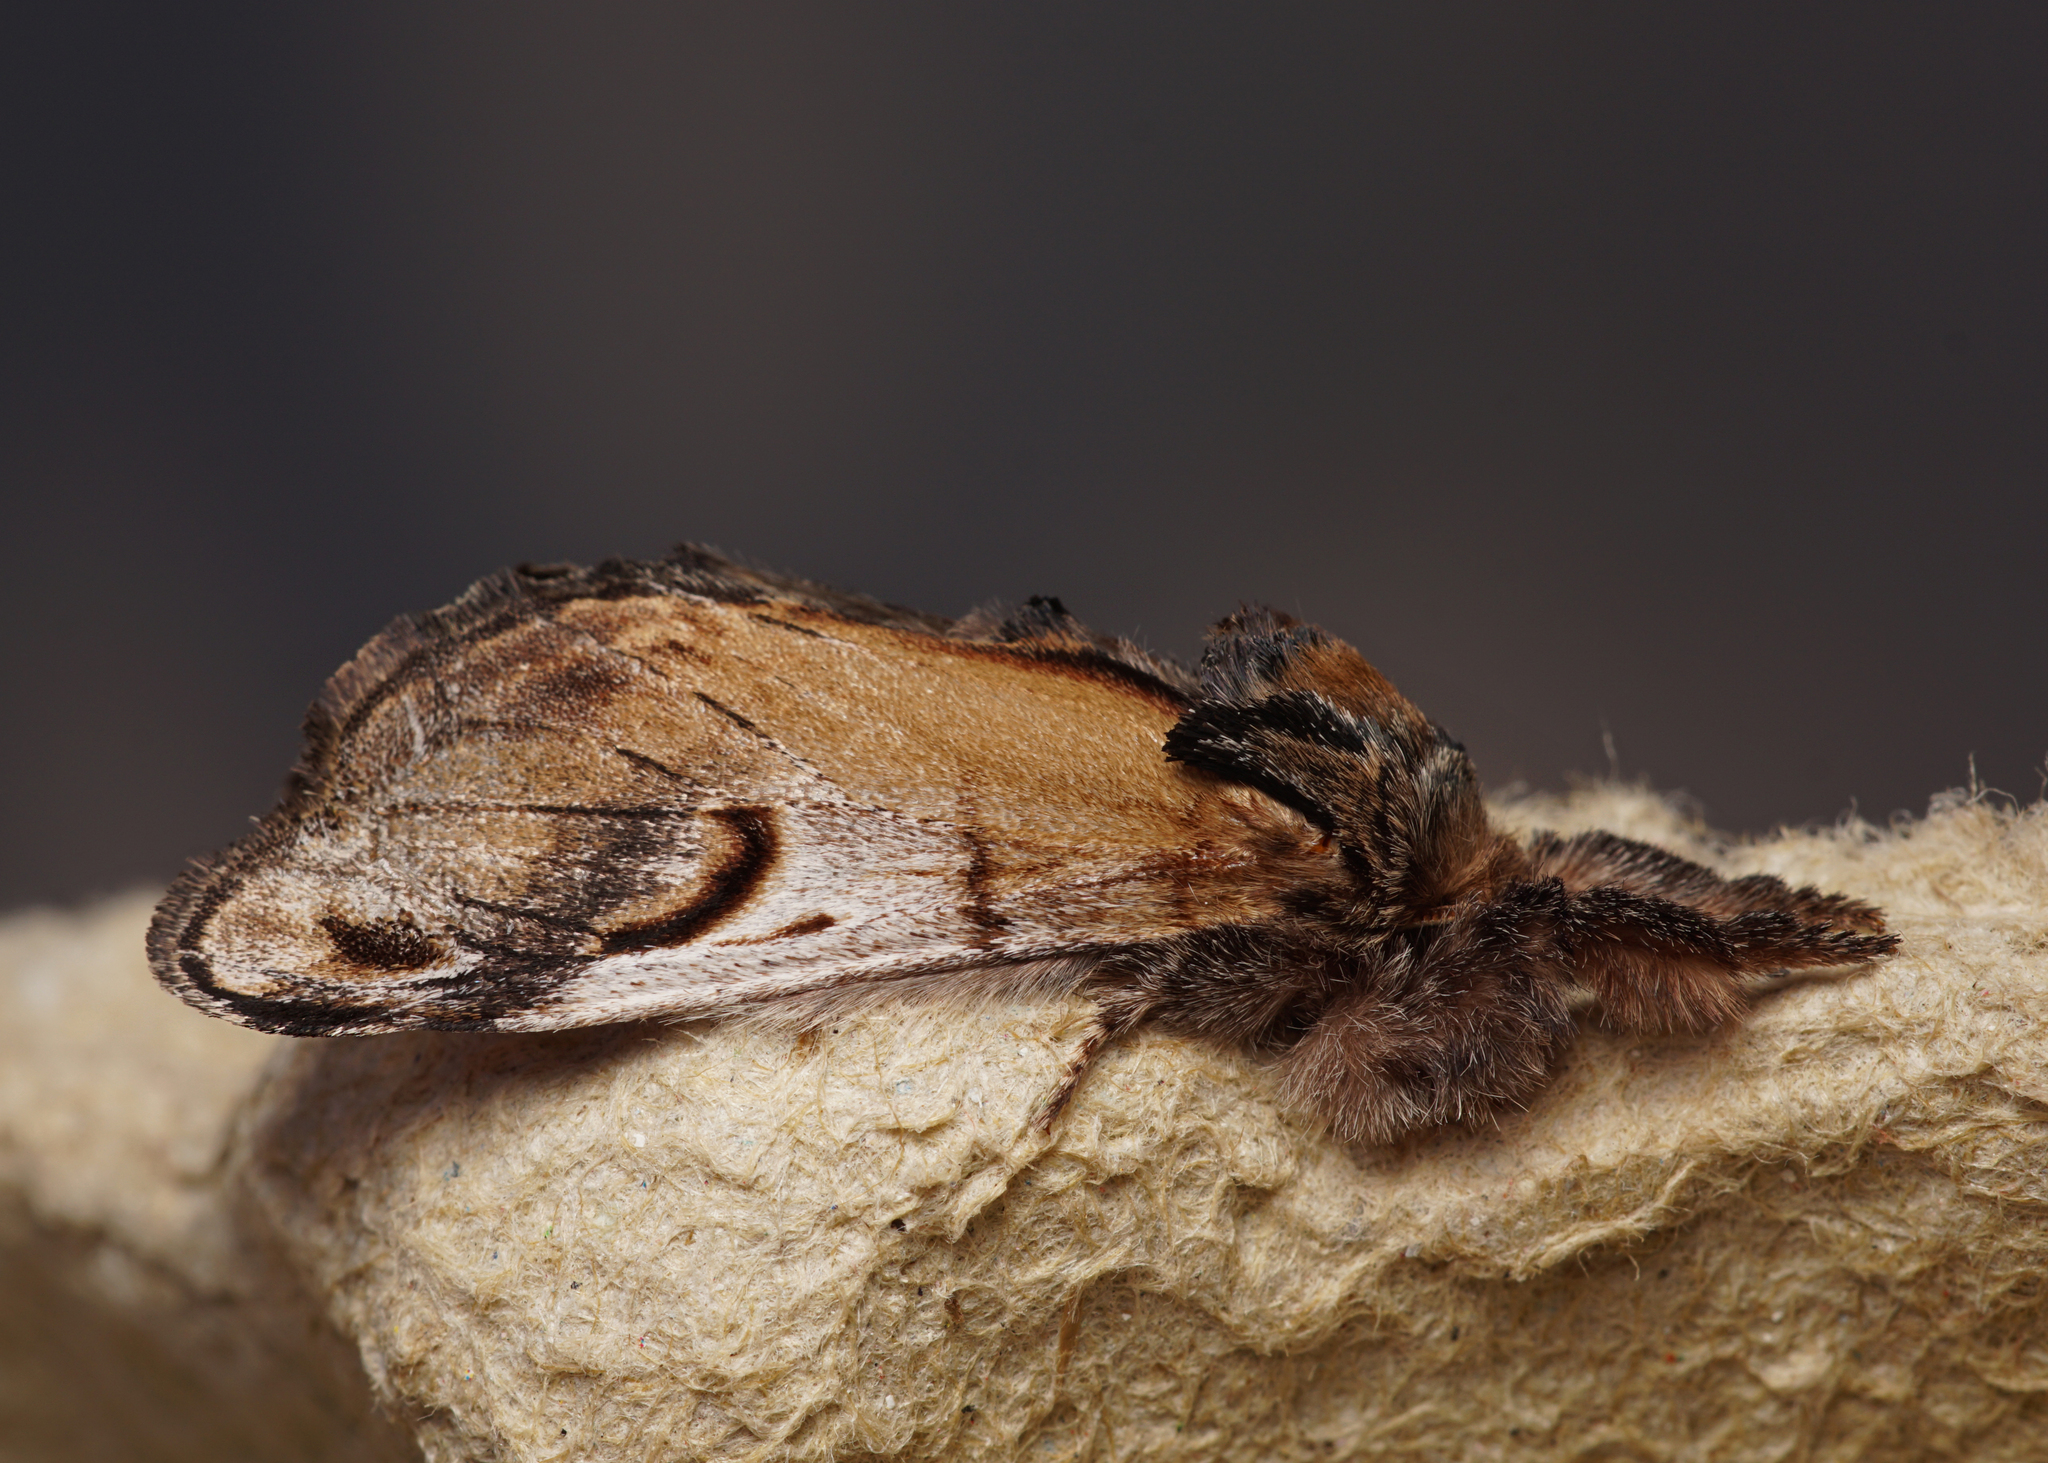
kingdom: Animalia
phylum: Arthropoda
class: Insecta
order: Lepidoptera
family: Notodontidae
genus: Notodonta
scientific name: Notodonta ziczac
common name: Pebble prominent
